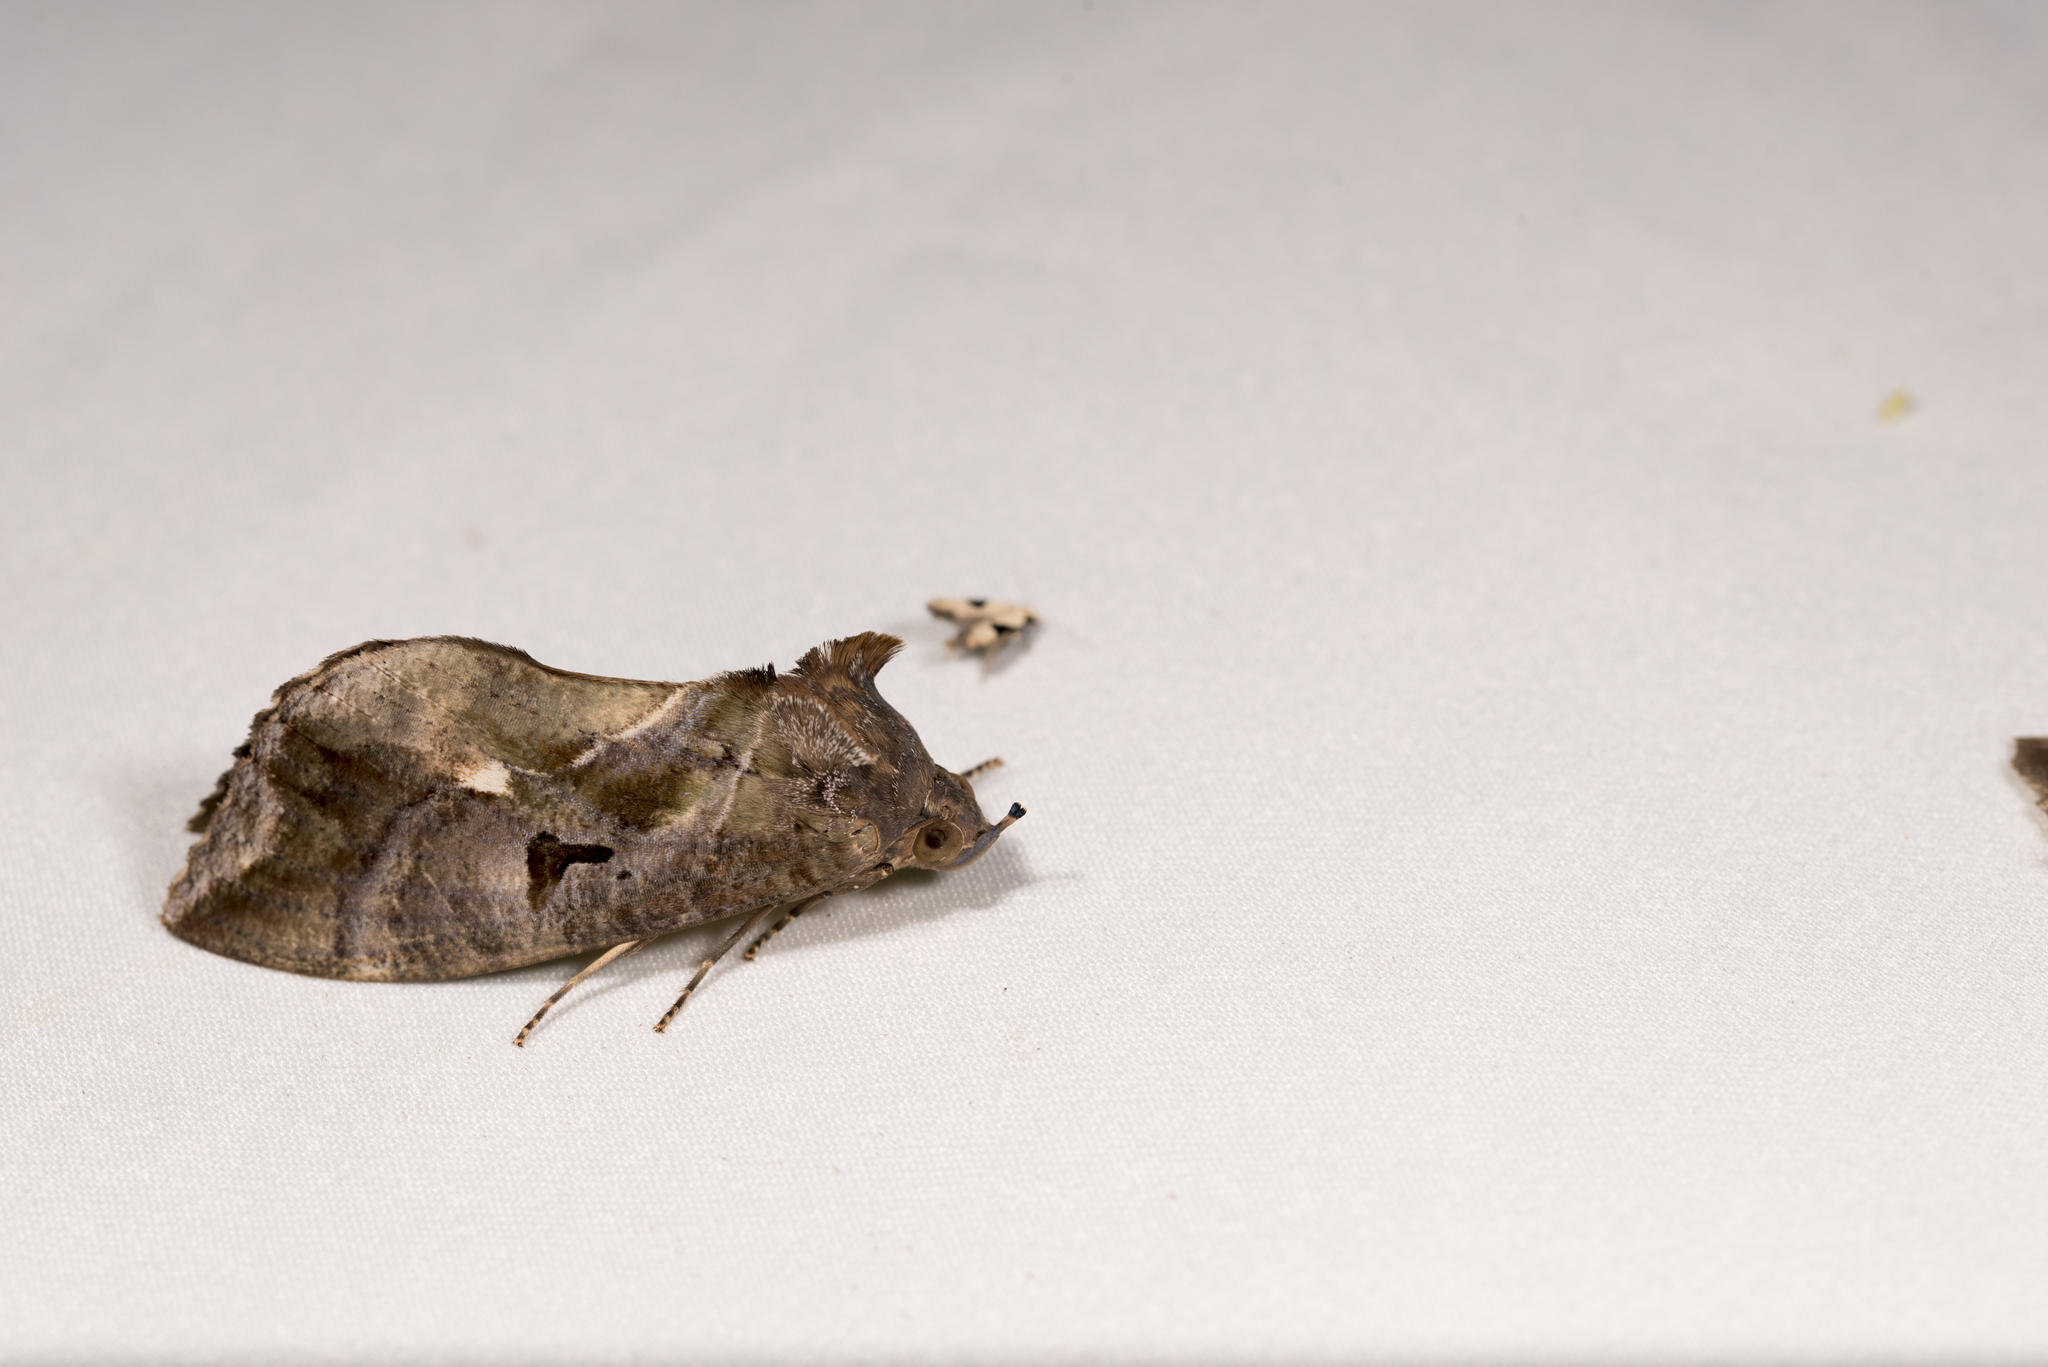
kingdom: Animalia
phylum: Arthropoda
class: Insecta
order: Lepidoptera
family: Erebidae
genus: Eudocima
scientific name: Eudocima phalonia
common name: Wasp
